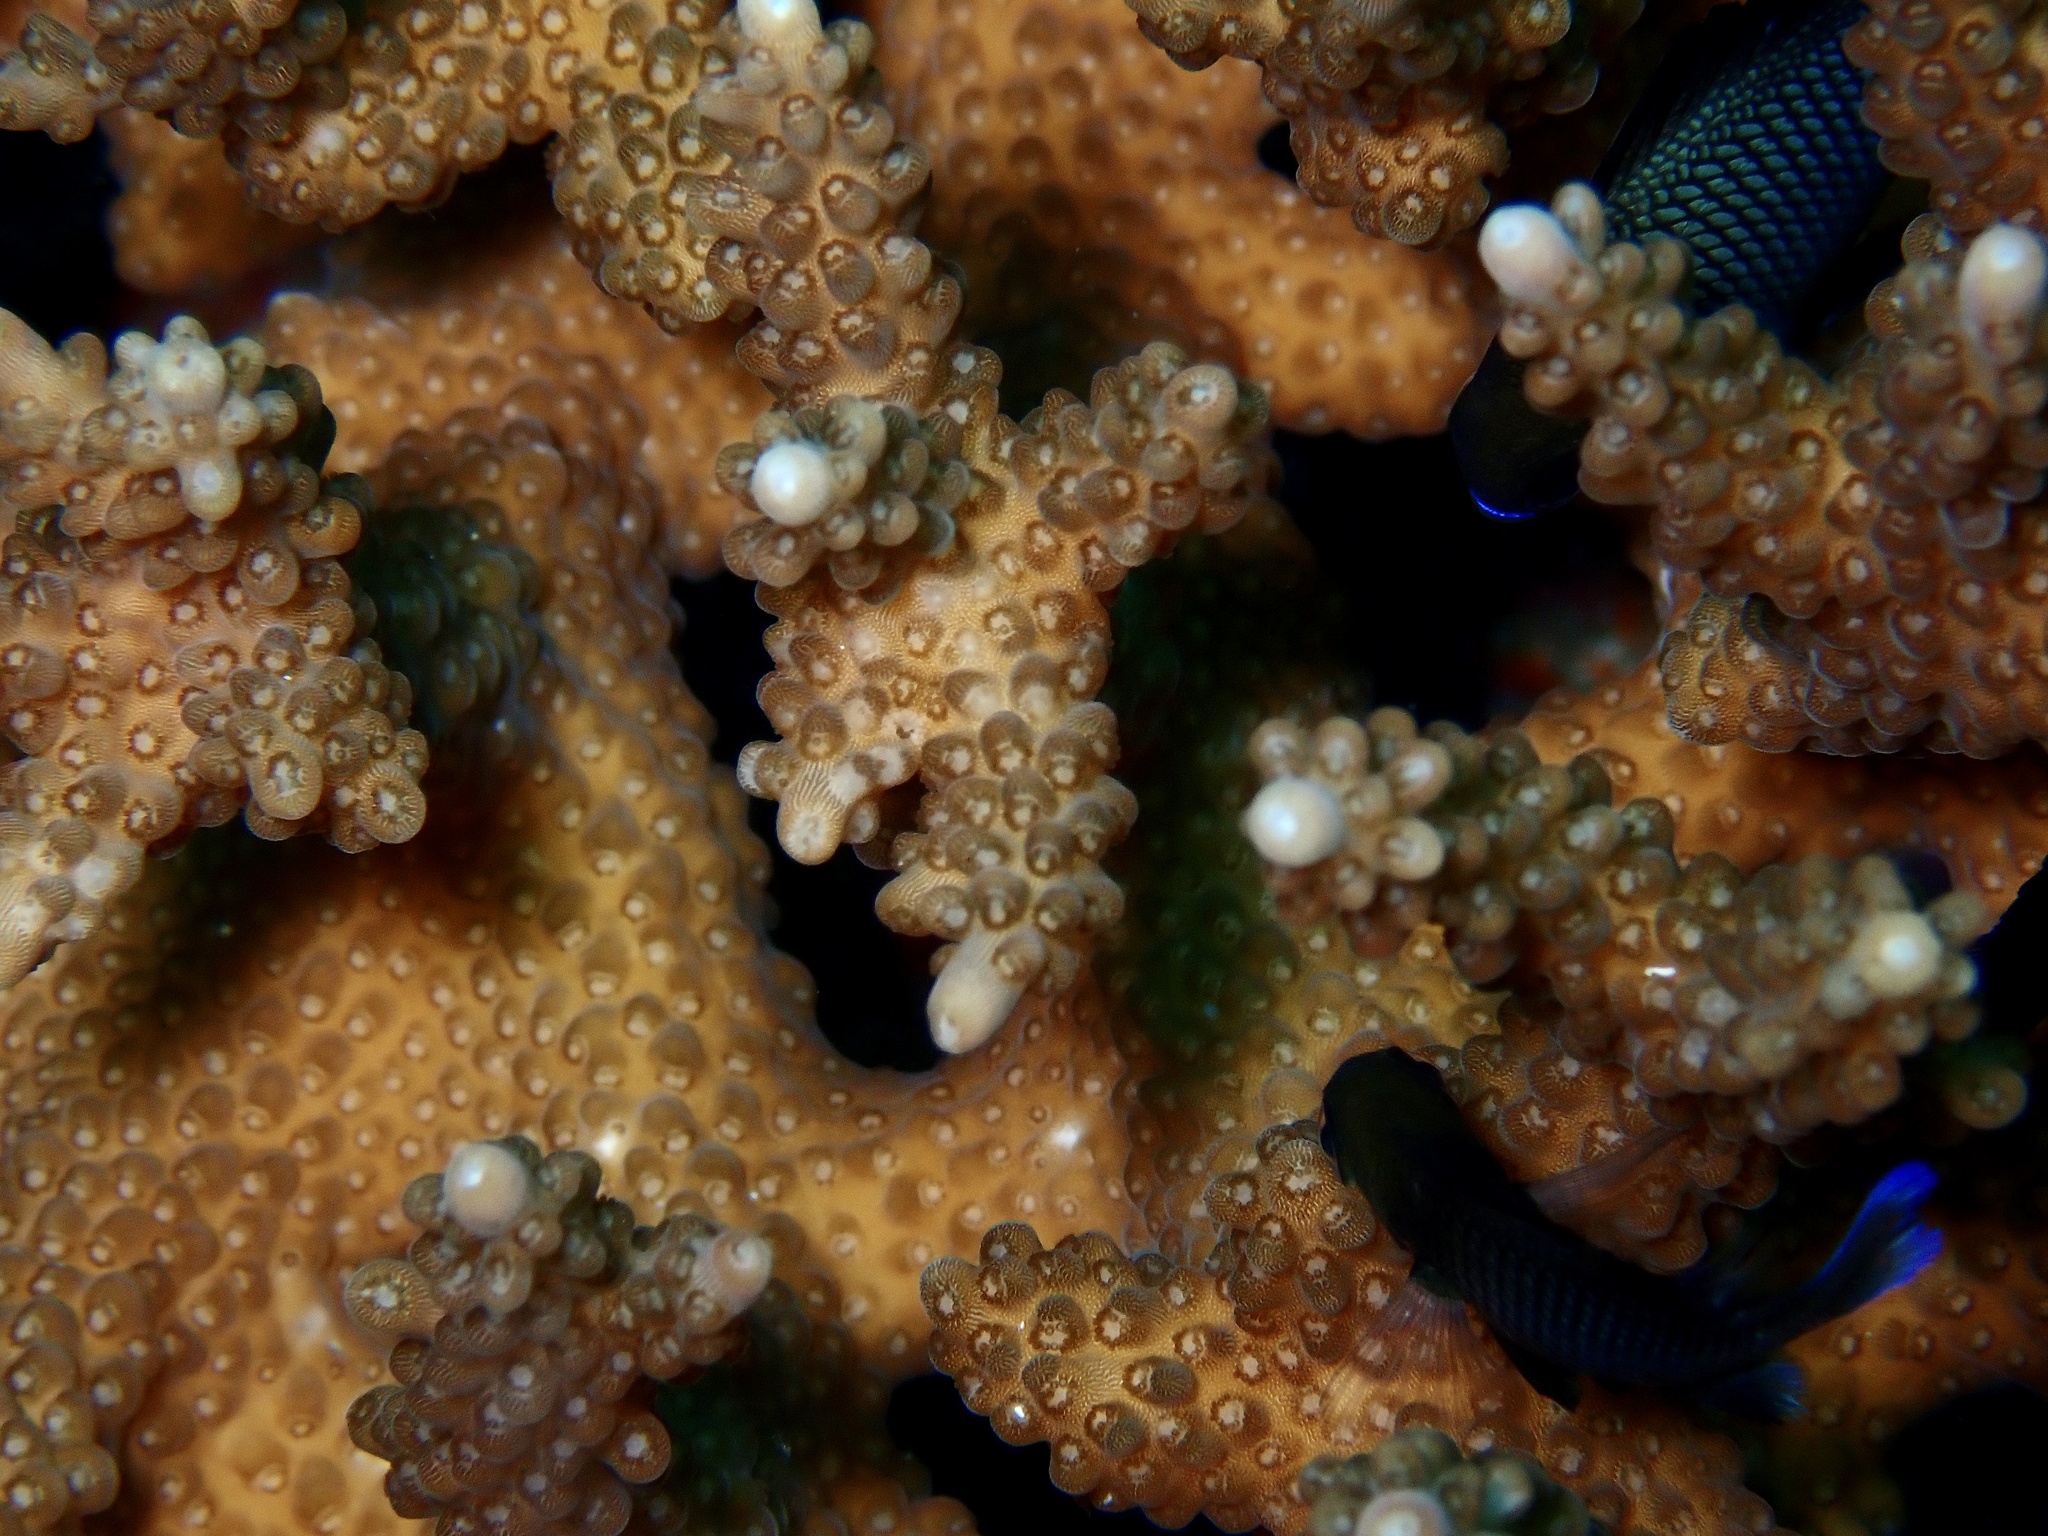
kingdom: Animalia
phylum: Cnidaria
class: Anthozoa
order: Scleractinia
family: Acroporidae
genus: Acropora
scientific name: Acropora solitaryensis
